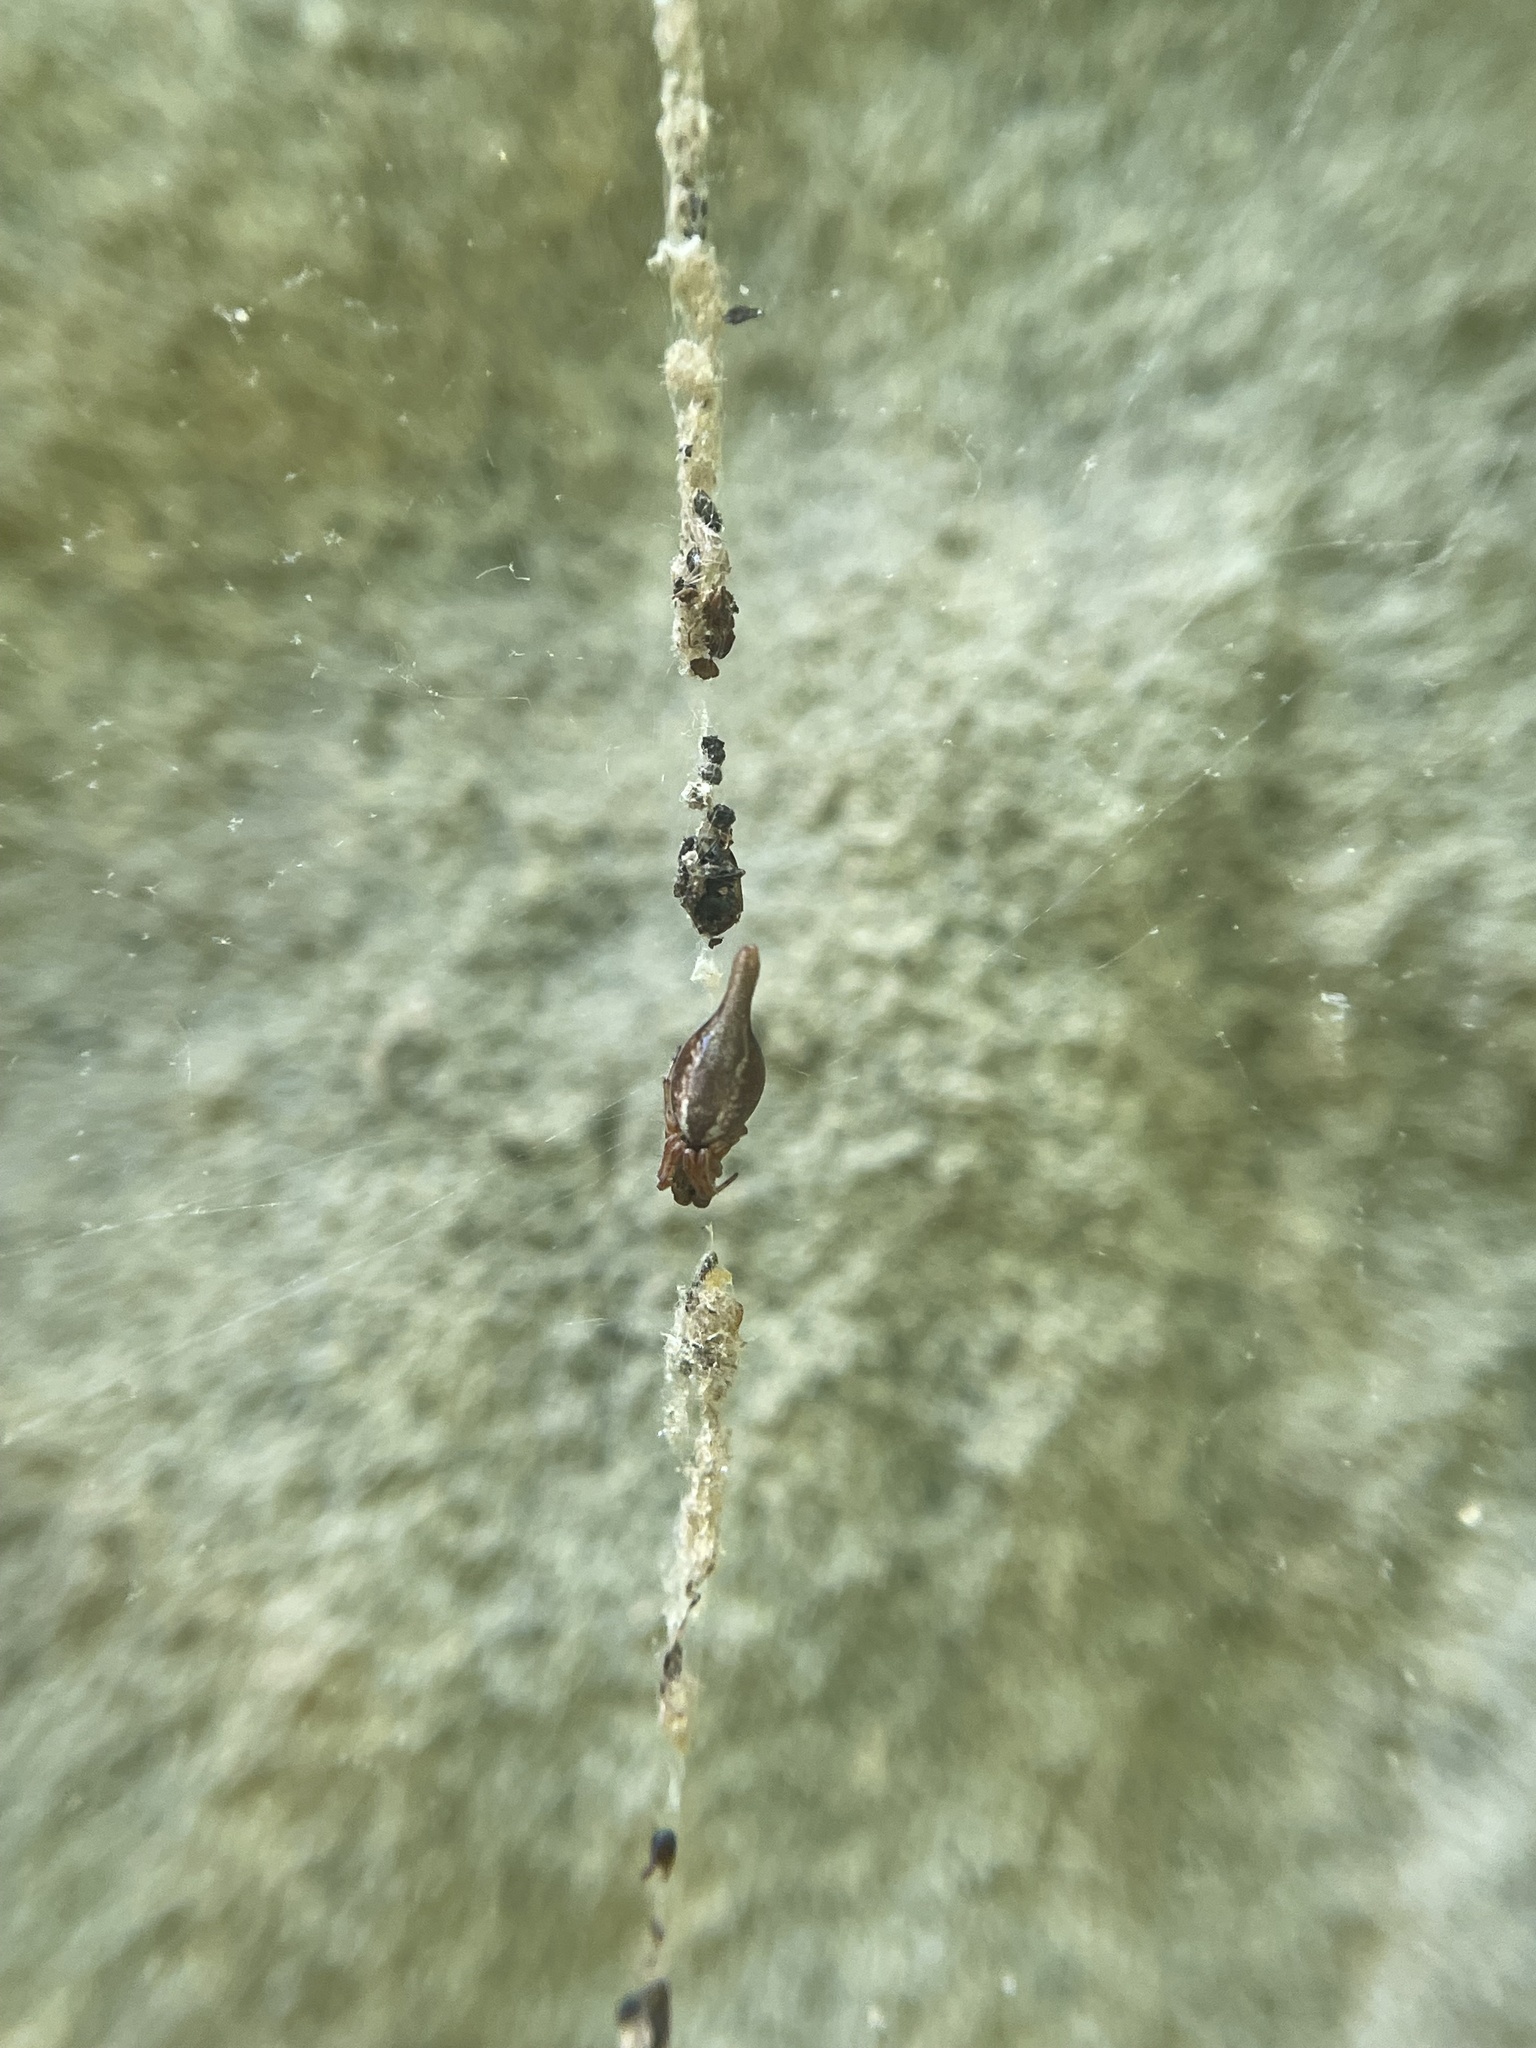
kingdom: Animalia
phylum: Arthropoda
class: Arachnida
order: Araneae
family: Araneidae
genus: Cyclosa
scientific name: Cyclosa conica
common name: Conical trashline orbweaver
